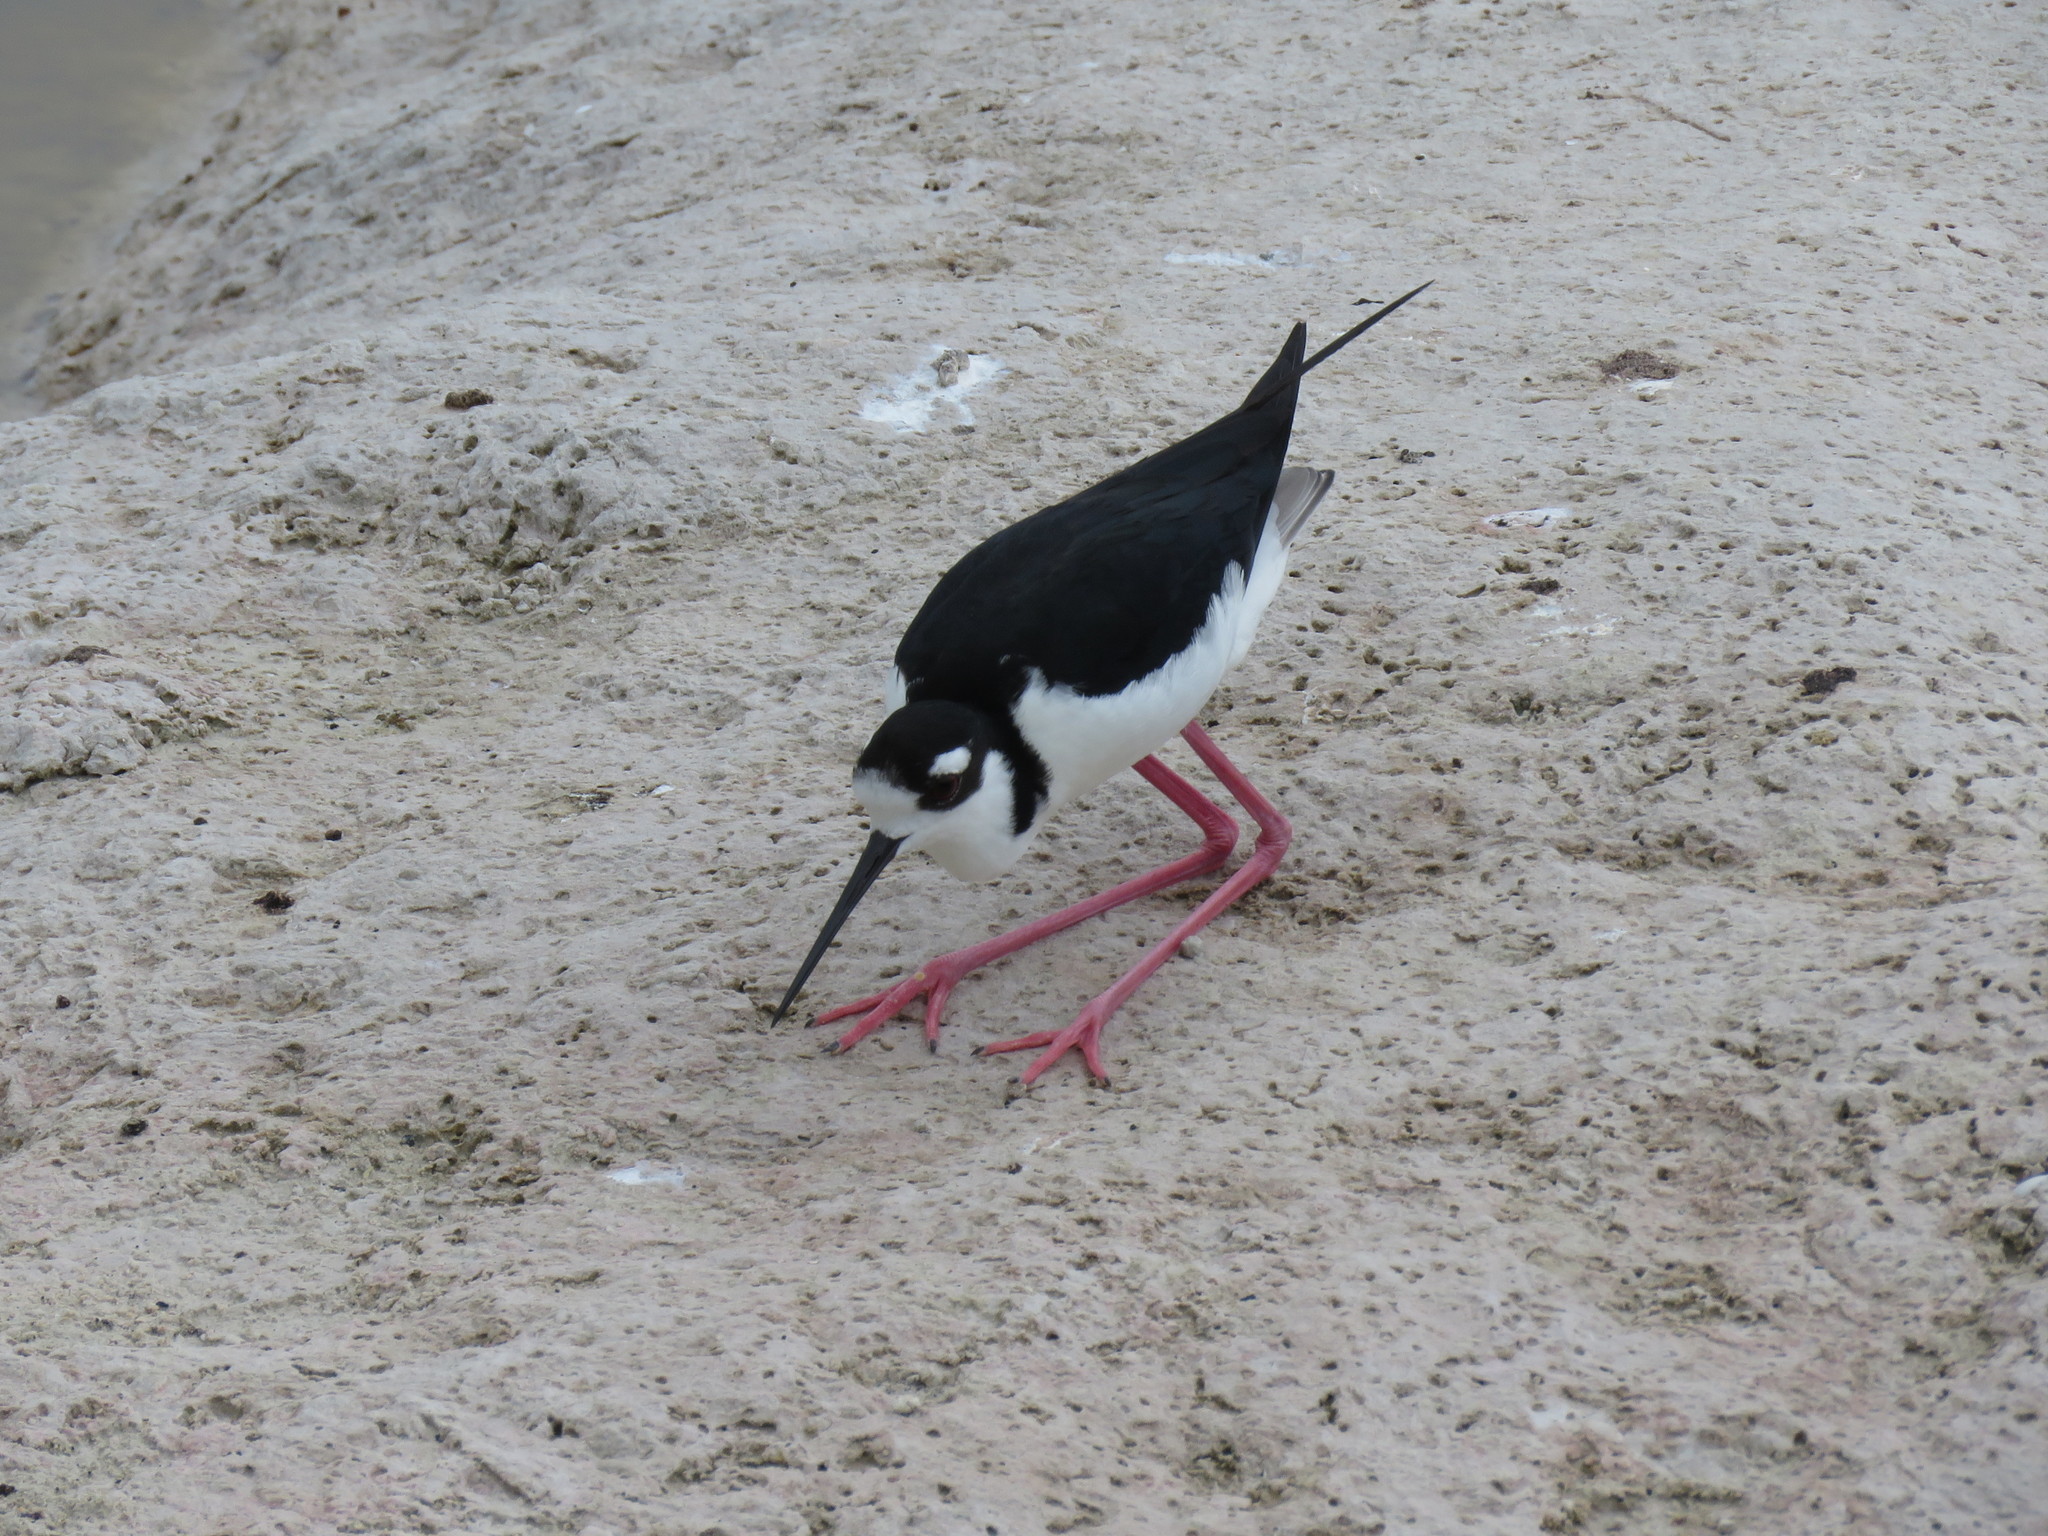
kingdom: Animalia
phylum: Chordata
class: Aves
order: Charadriiformes
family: Recurvirostridae
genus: Himantopus
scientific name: Himantopus mexicanus
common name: Black-necked stilt
